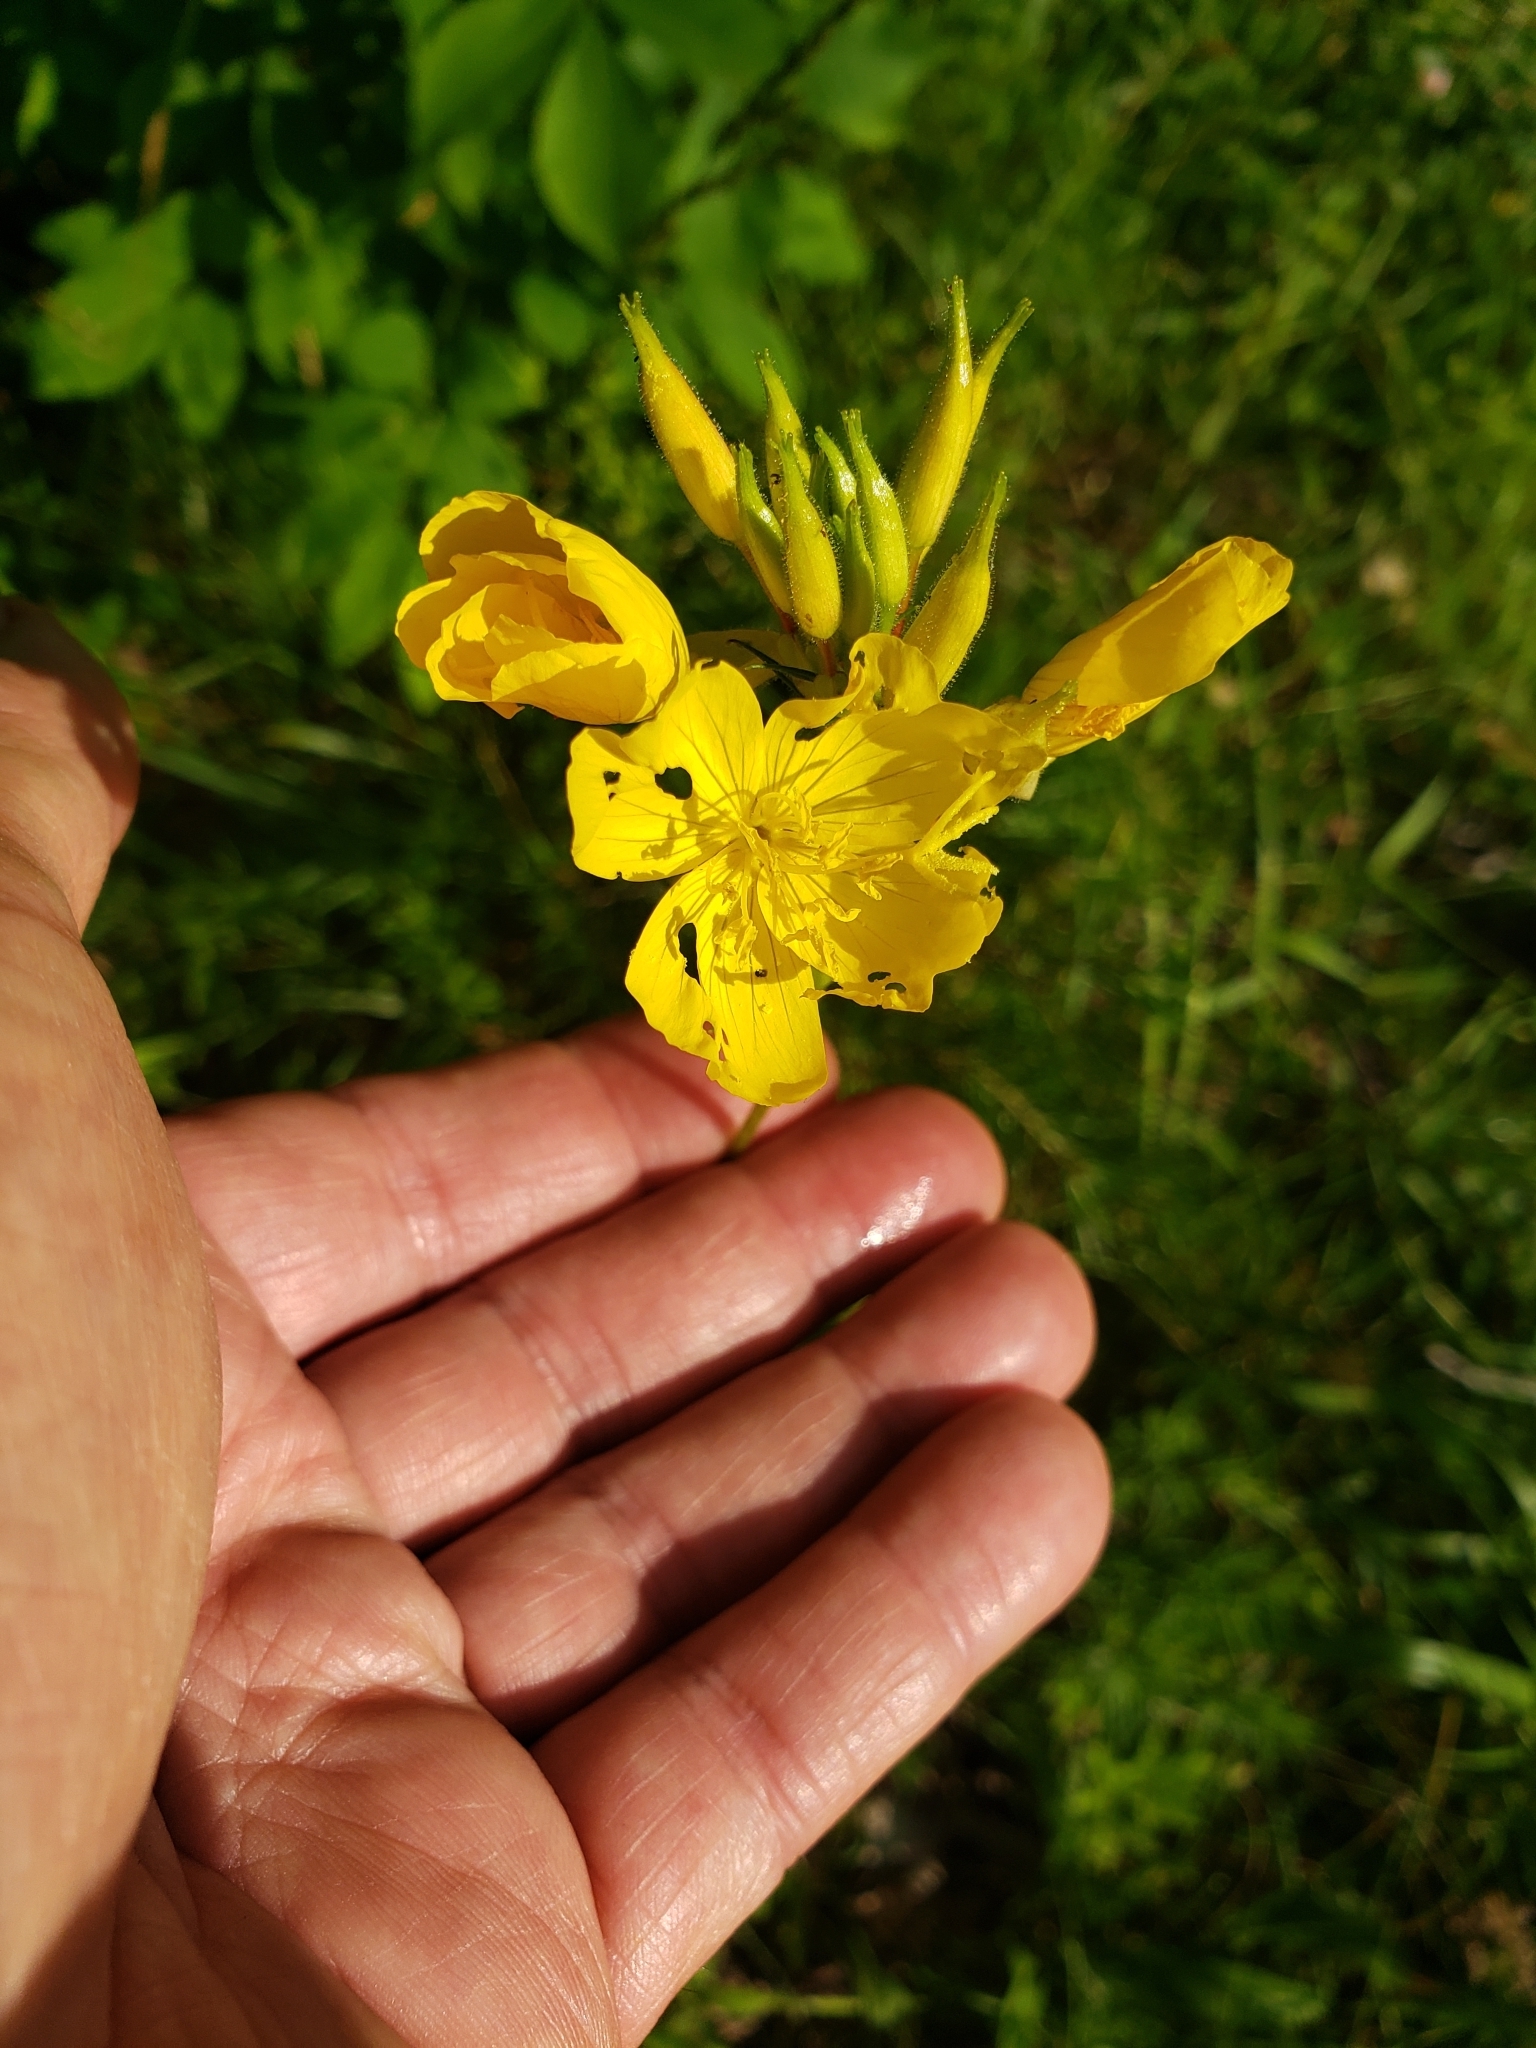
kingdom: Plantae
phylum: Tracheophyta
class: Magnoliopsida
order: Myrtales
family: Onagraceae
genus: Oenothera
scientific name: Oenothera tetragona
